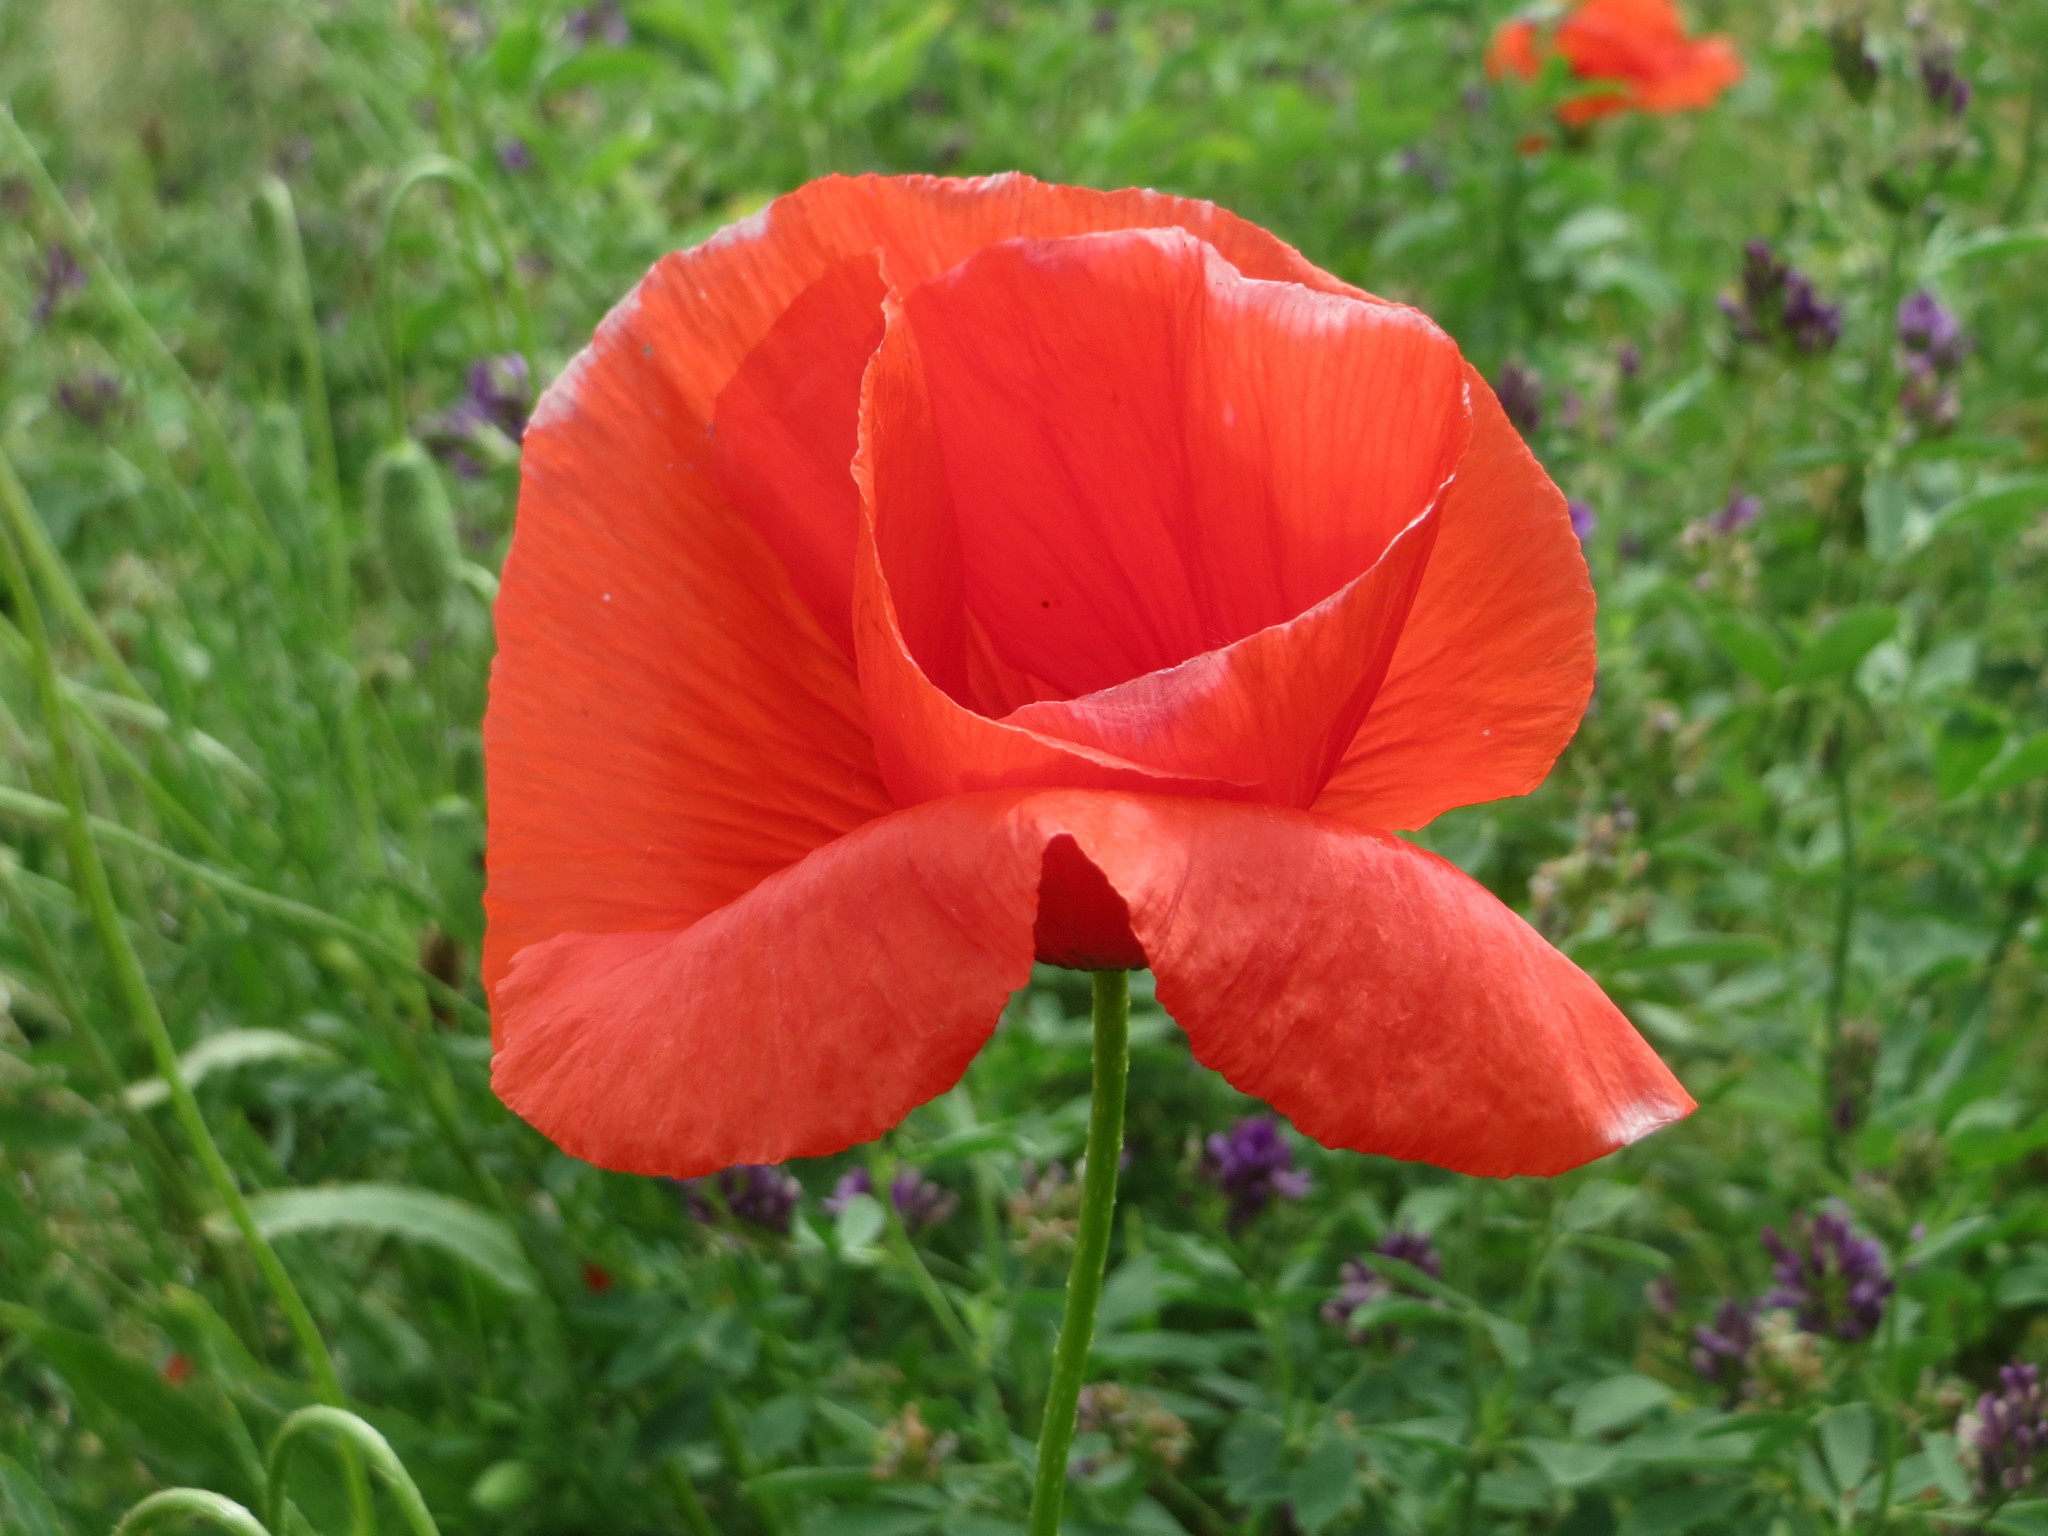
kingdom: Plantae
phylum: Tracheophyta
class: Magnoliopsida
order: Ranunculales
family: Papaveraceae
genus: Papaver
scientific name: Papaver rhoeas
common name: Corn poppy
